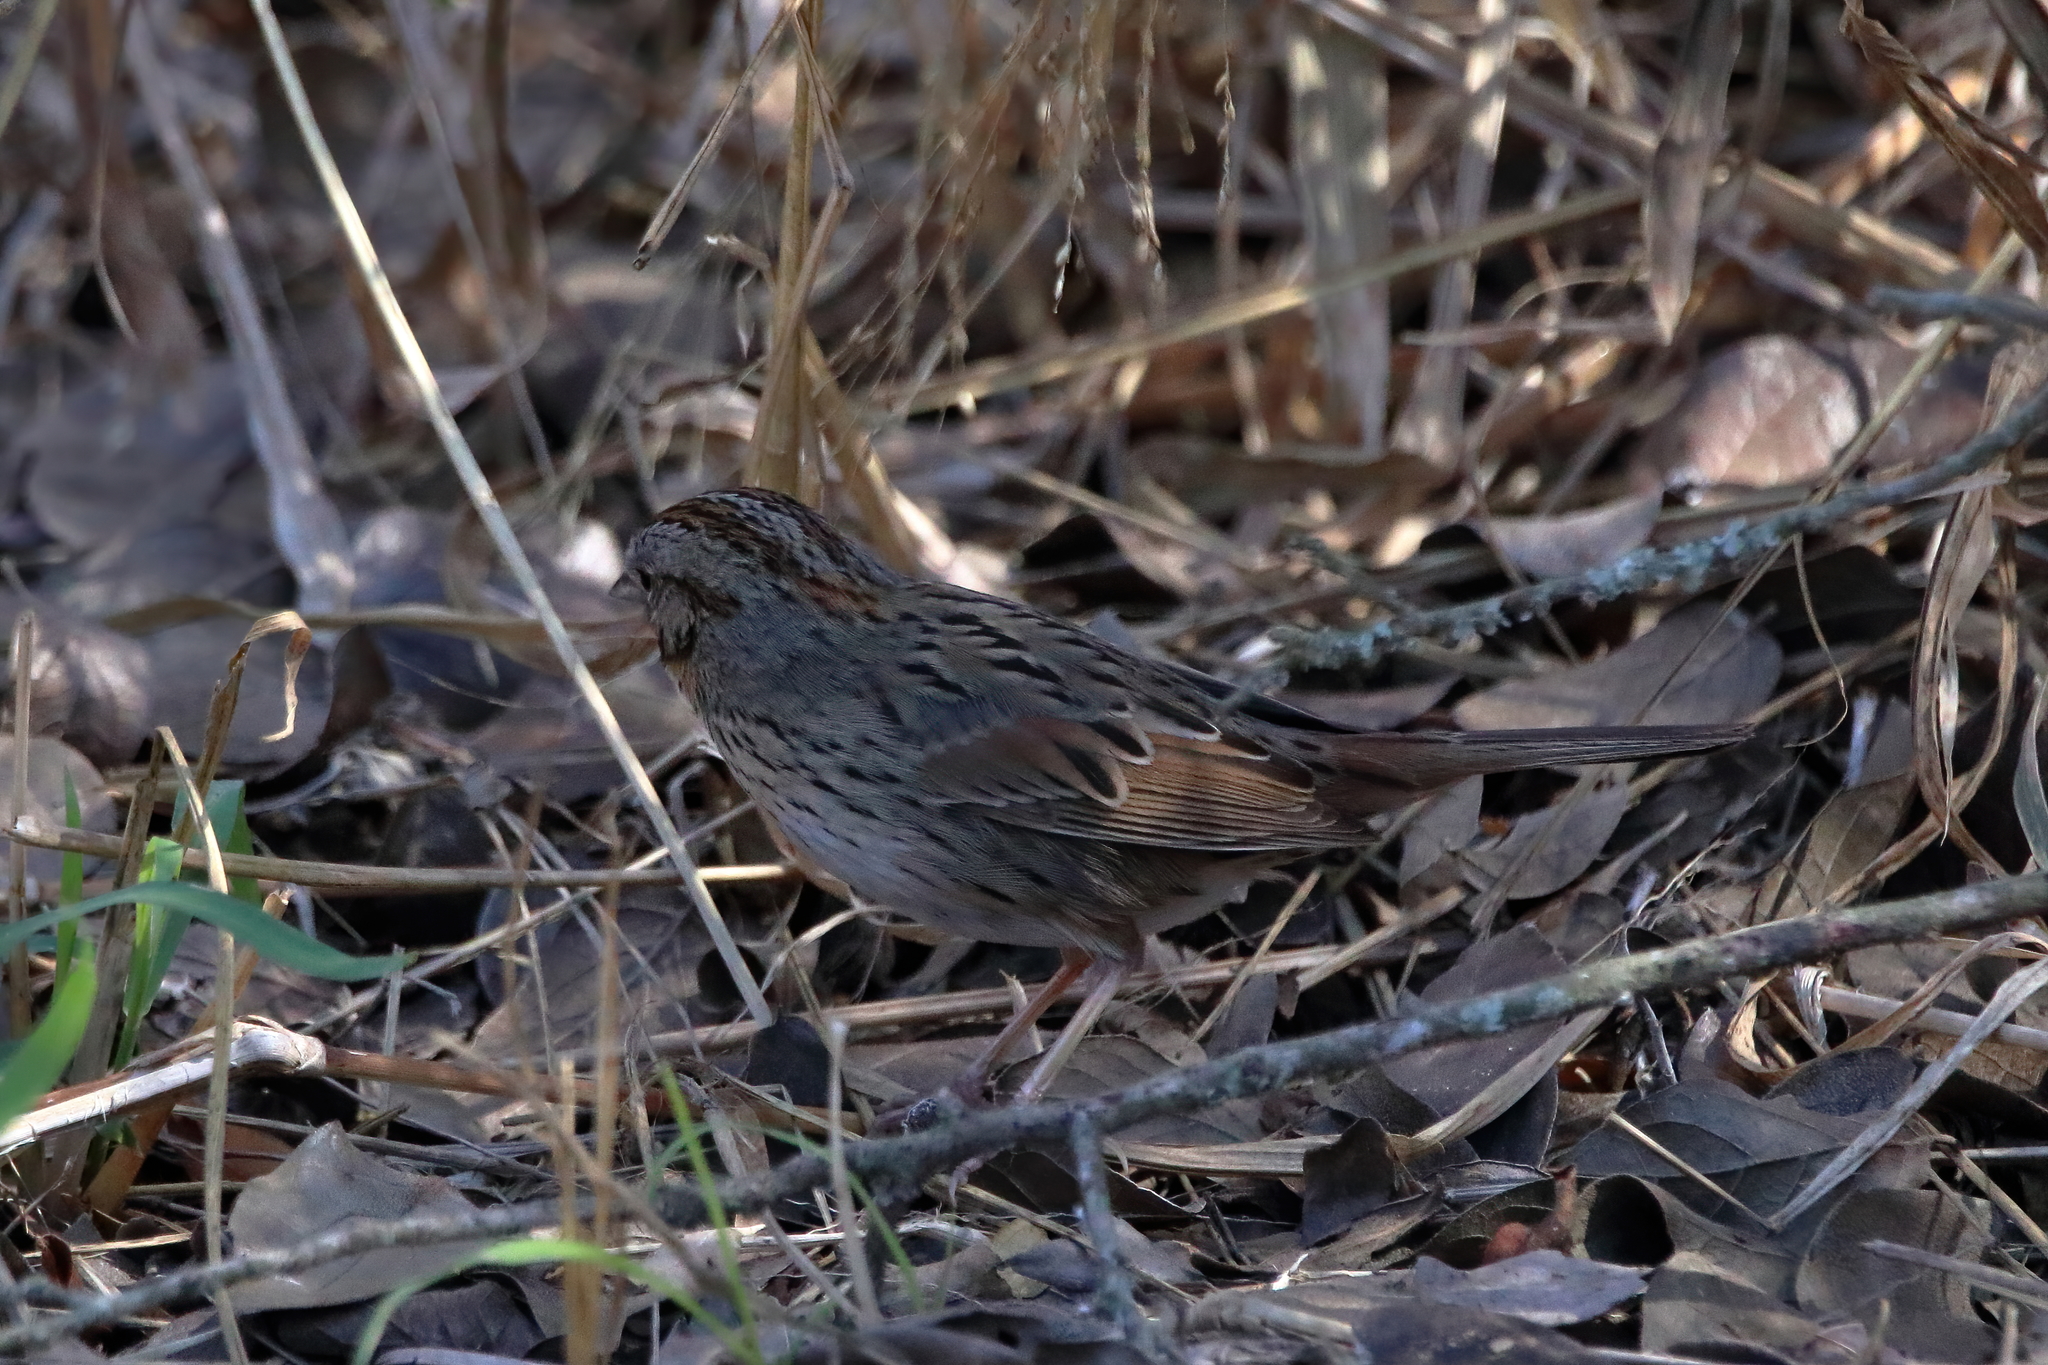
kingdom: Animalia
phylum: Chordata
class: Aves
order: Passeriformes
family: Passerellidae
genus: Melospiza
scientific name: Melospiza lincolnii
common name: Lincoln's sparrow
